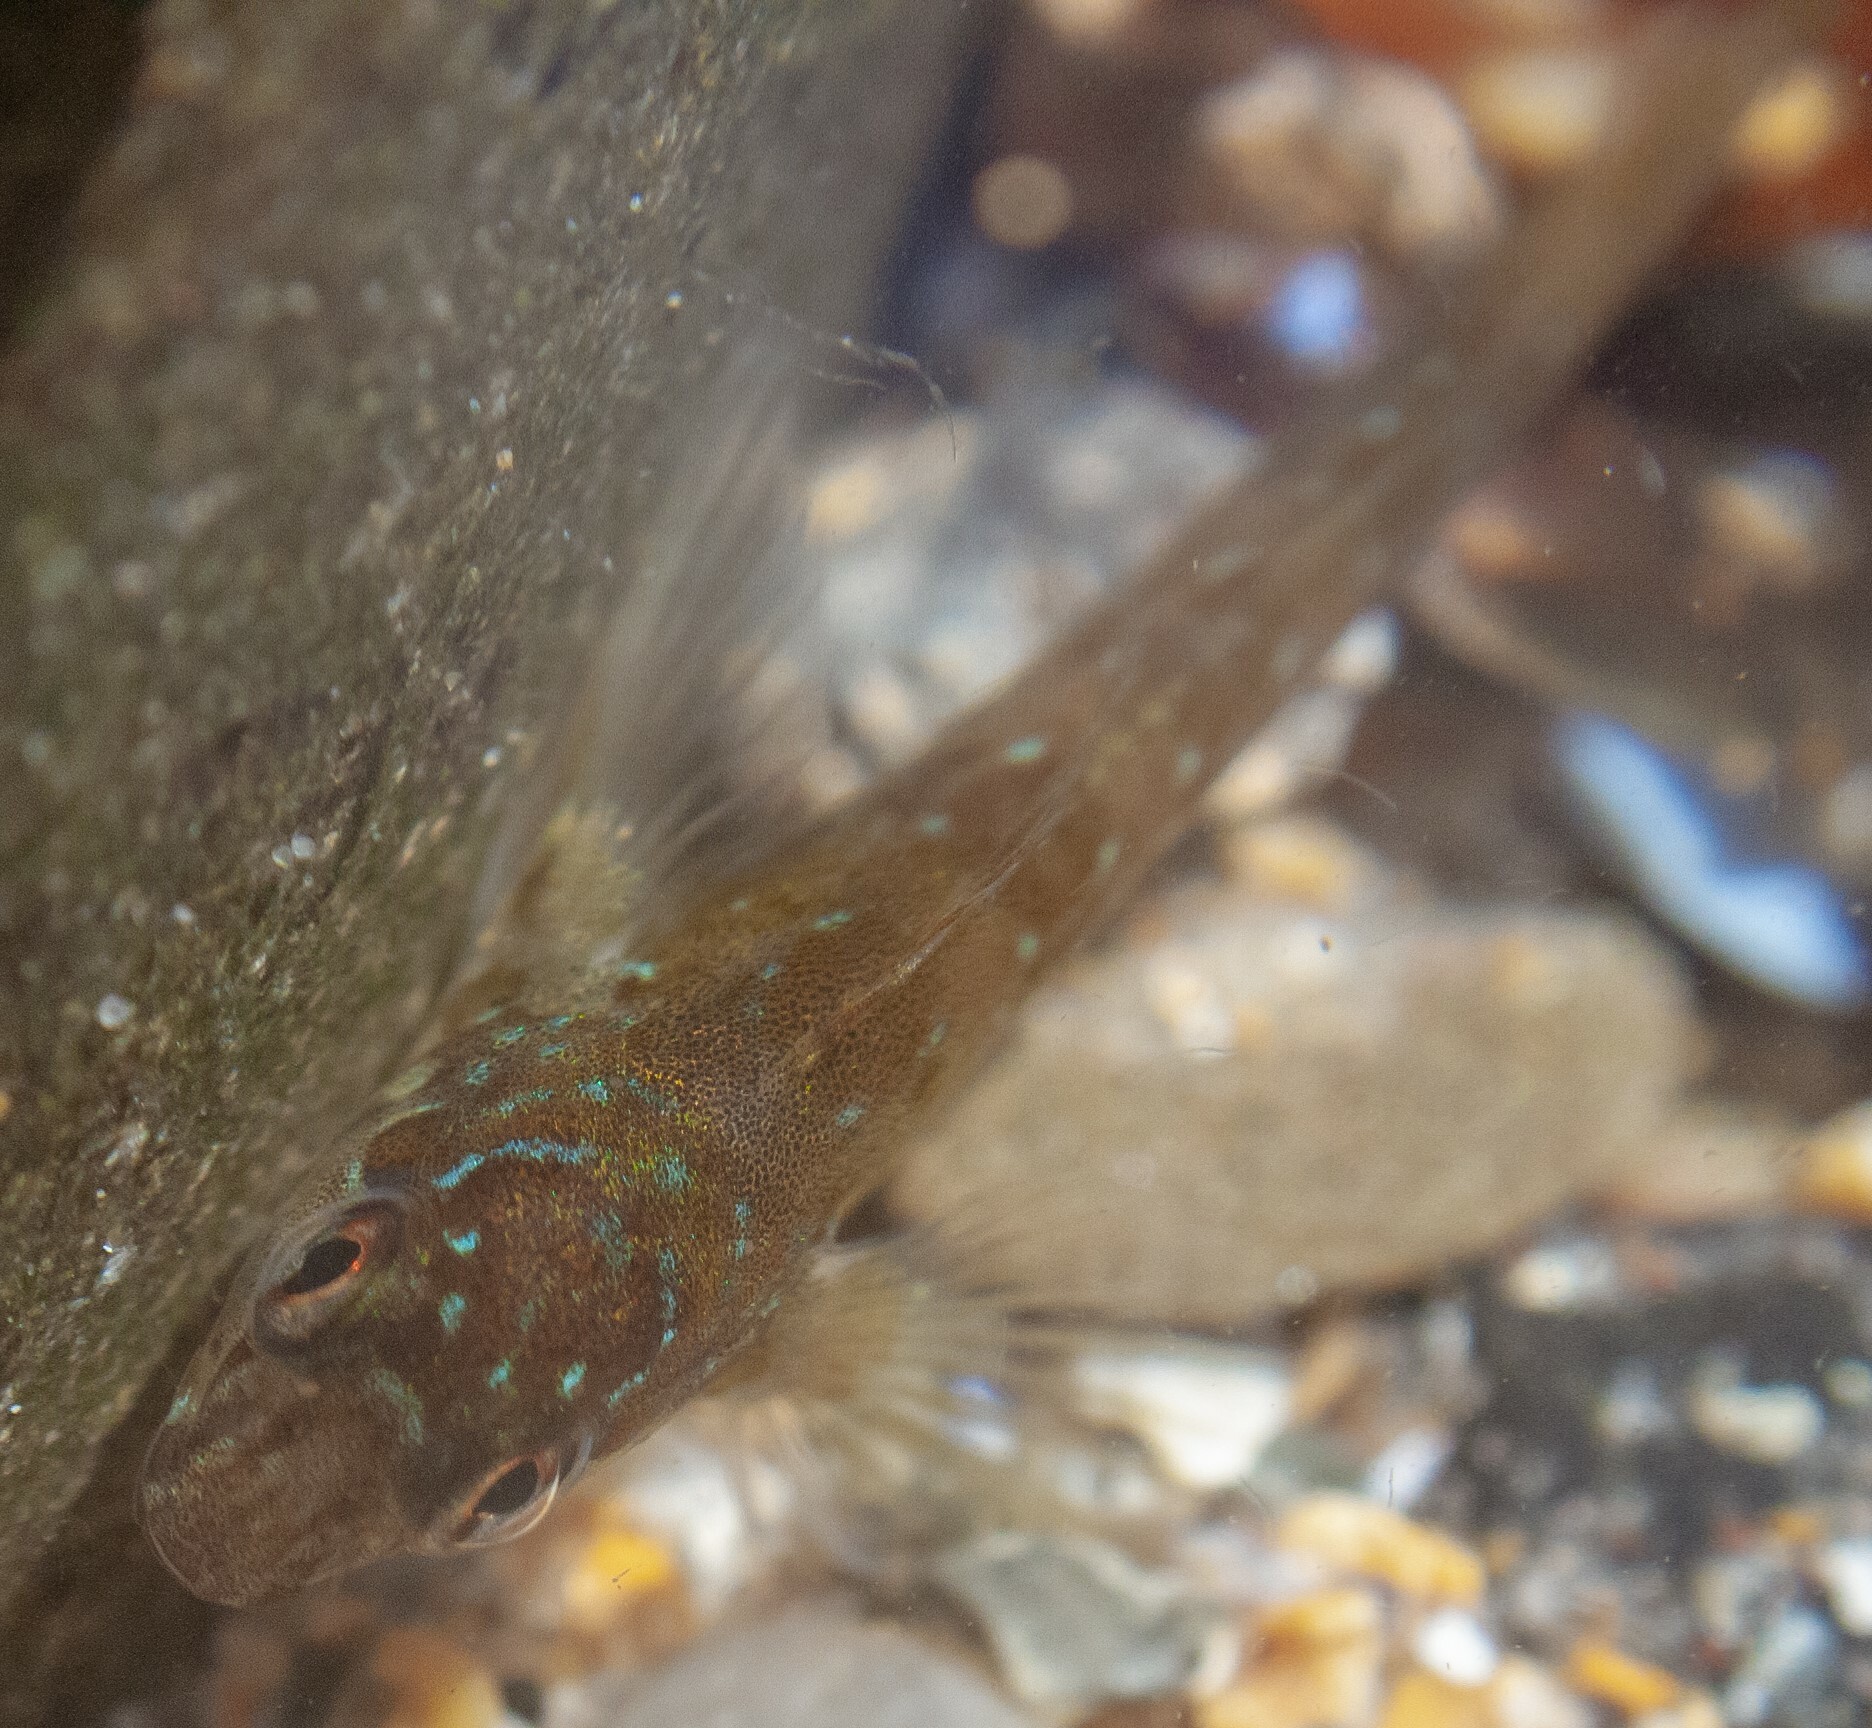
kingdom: Animalia
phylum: Chordata
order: Perciformes
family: Blenniidae
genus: Lipophrys
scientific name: Lipophrys pholis
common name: Shanny
